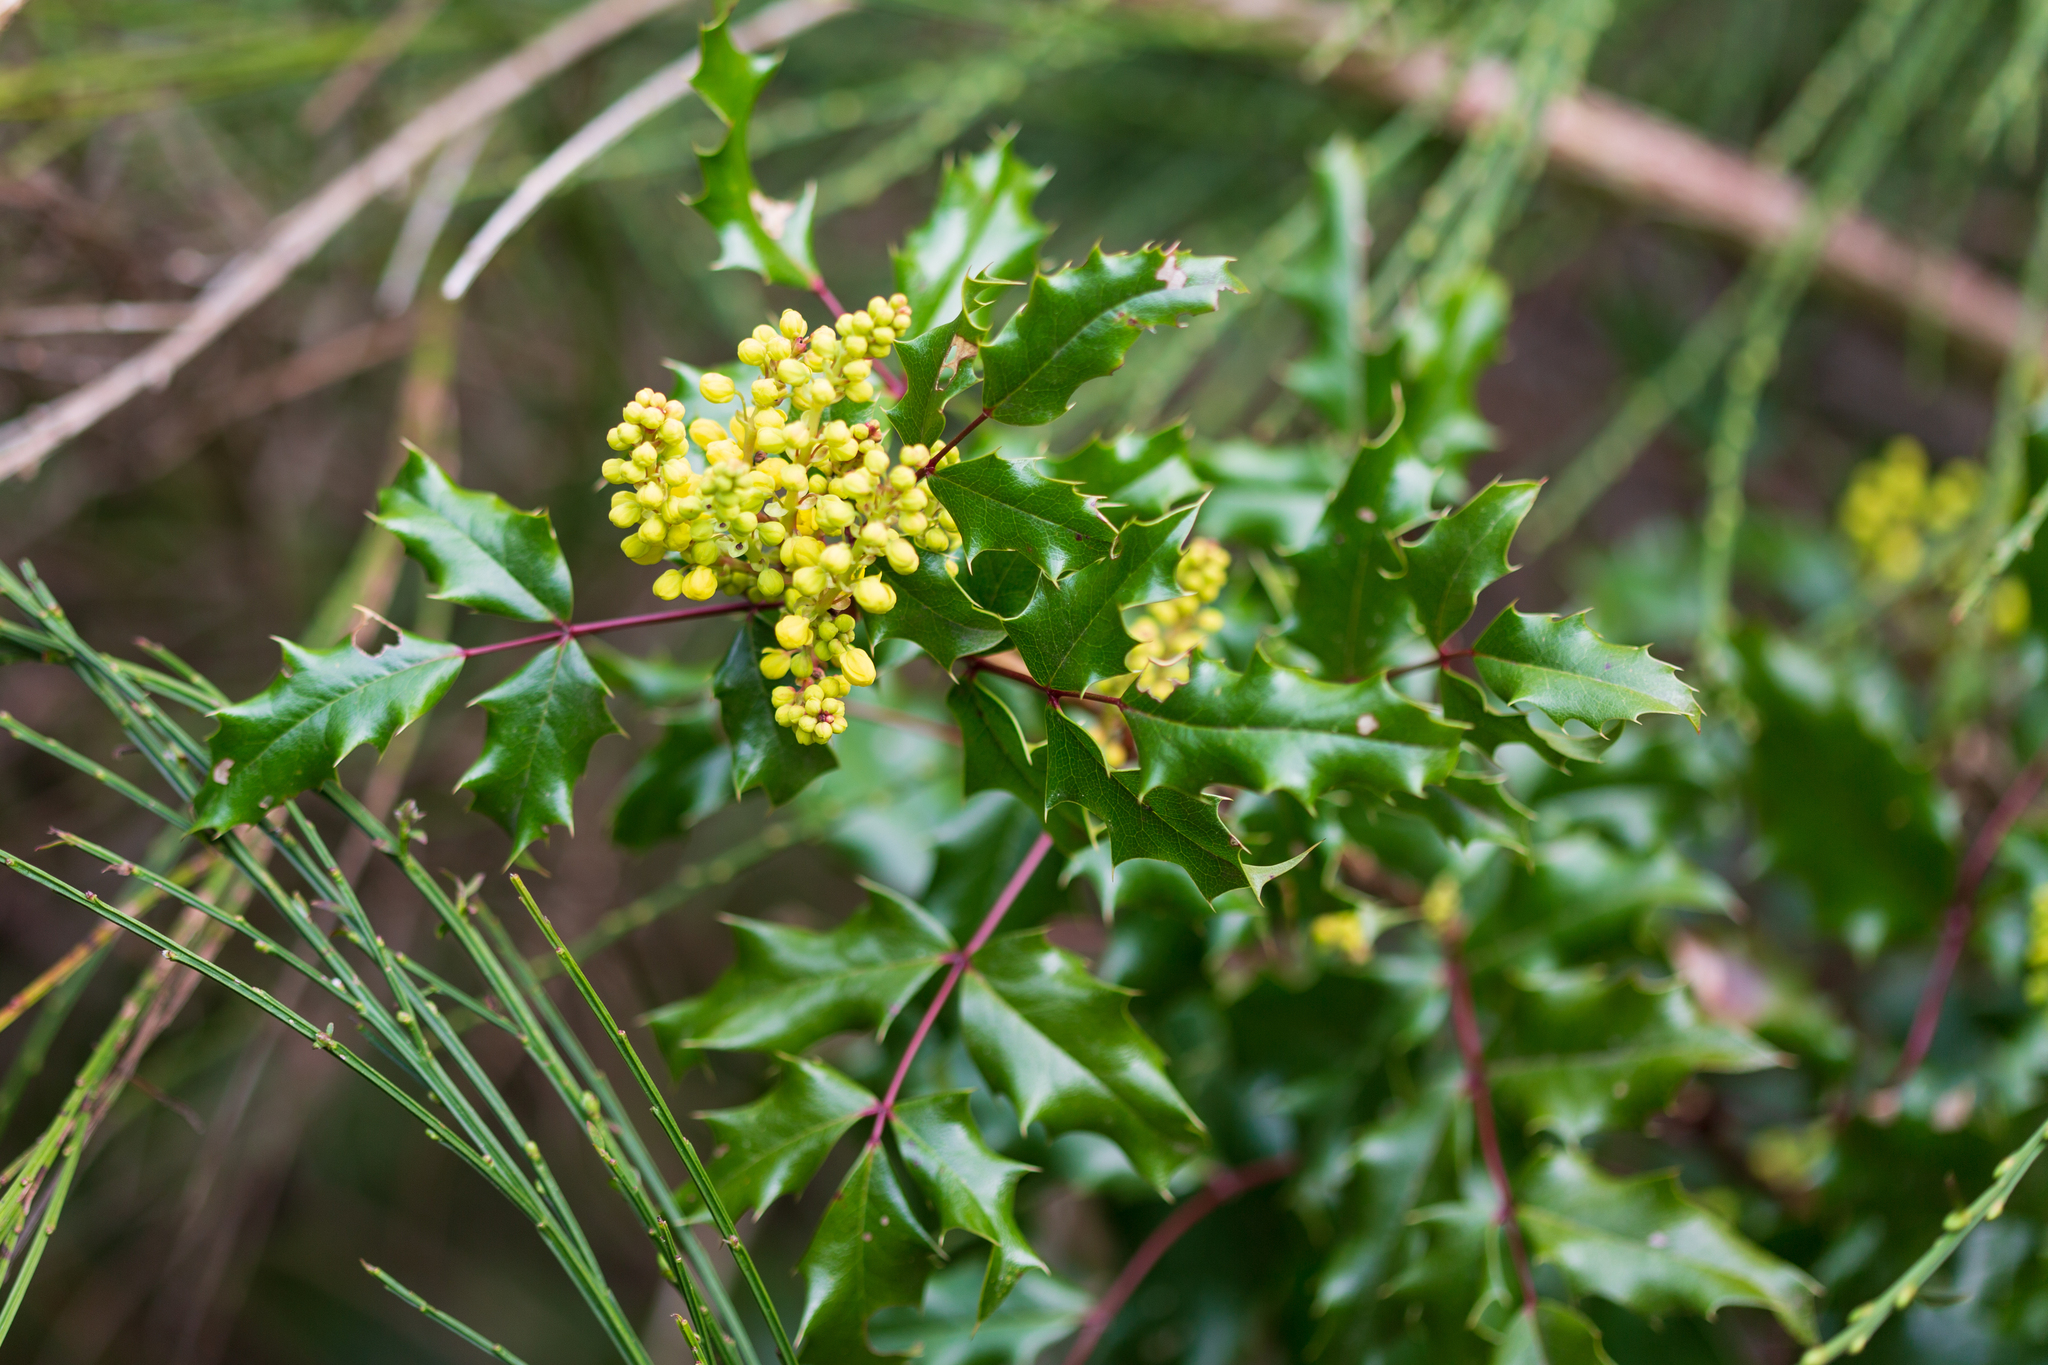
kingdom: Plantae
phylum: Tracheophyta
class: Magnoliopsida
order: Ranunculales
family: Berberidaceae
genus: Mahonia
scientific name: Mahonia aquifolium
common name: Oregon-grape
